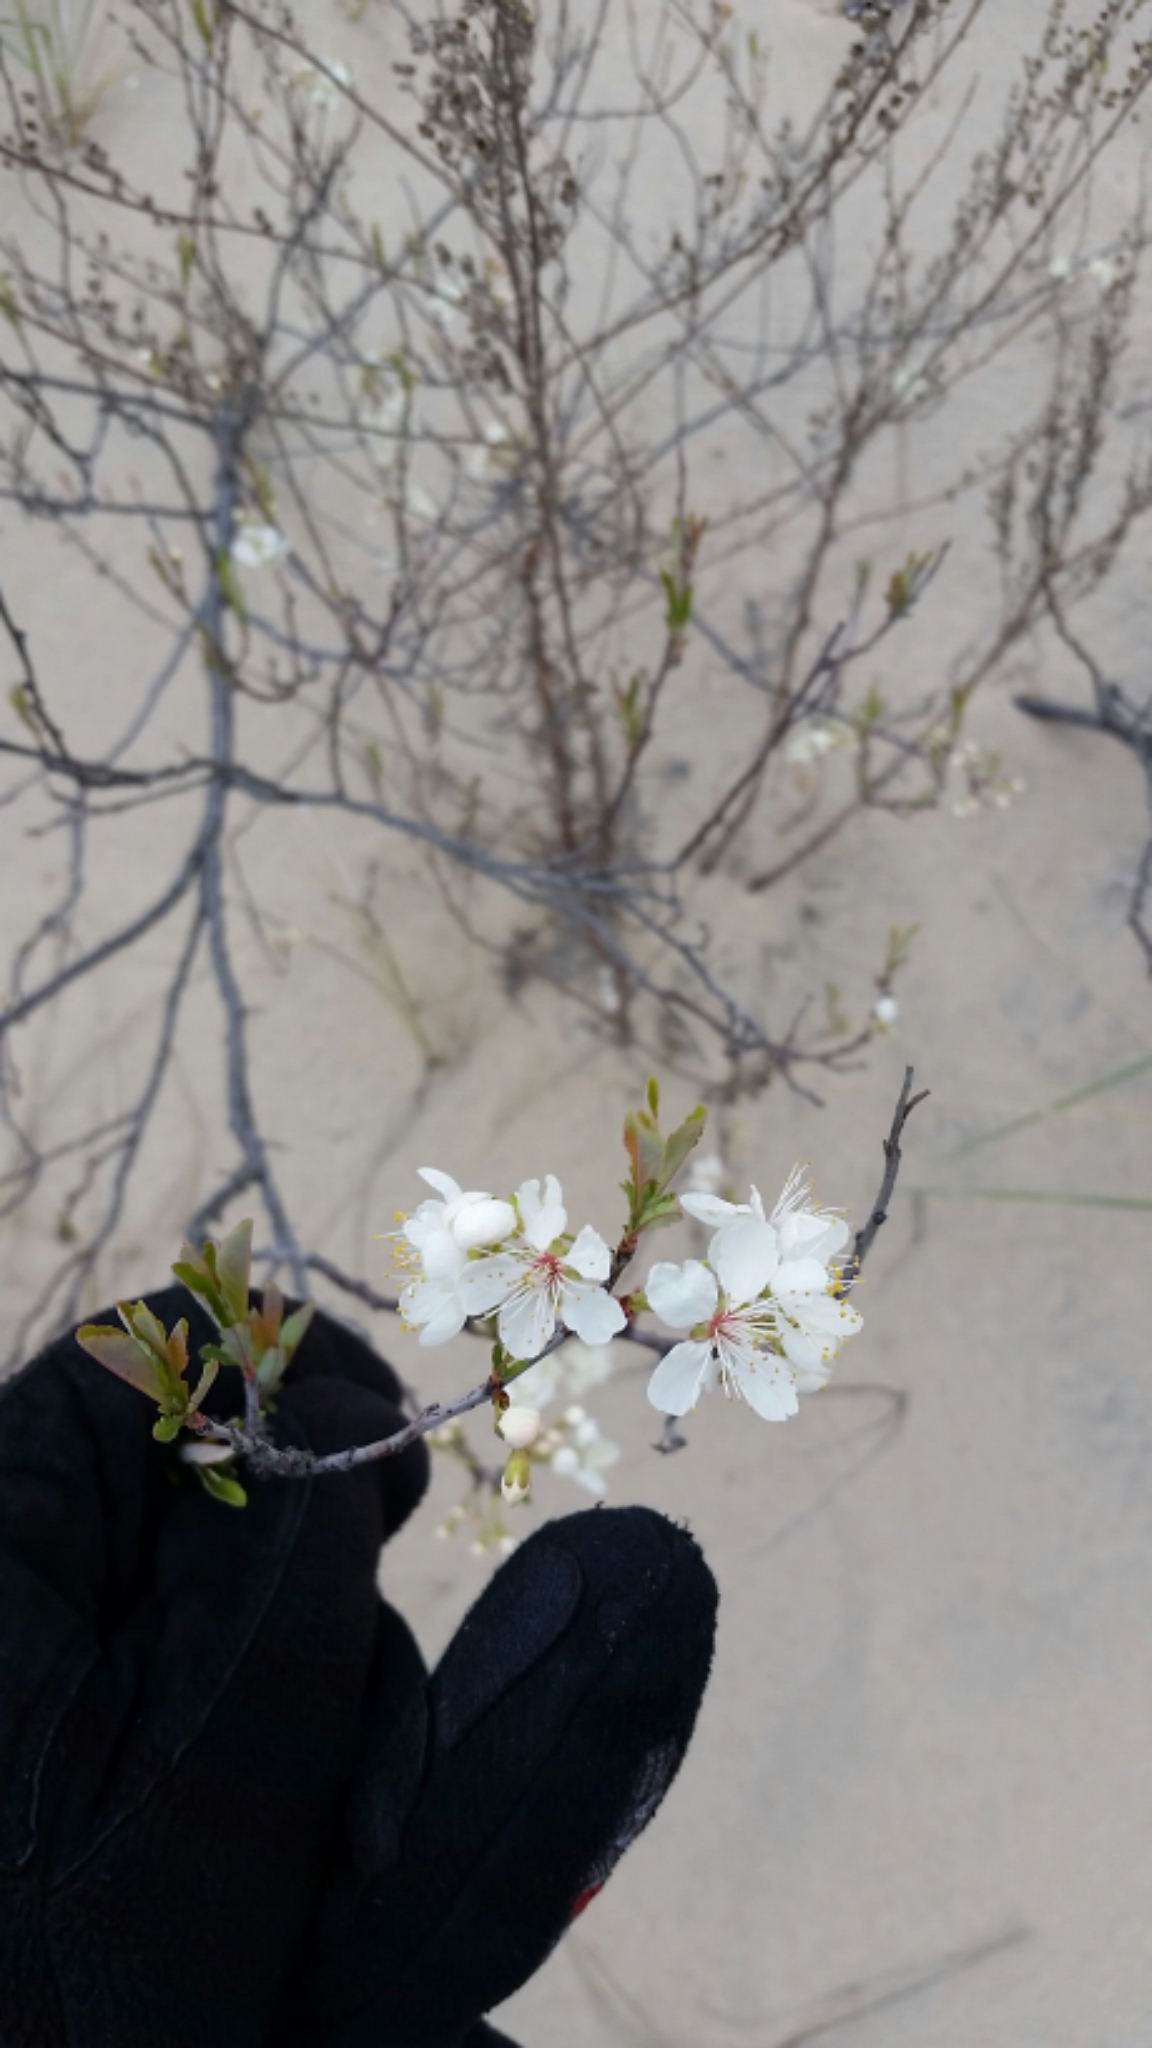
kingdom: Plantae
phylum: Tracheophyta
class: Magnoliopsida
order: Rosales
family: Rosaceae
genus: Prunus
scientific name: Prunus pumila
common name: Dwarf cherry
